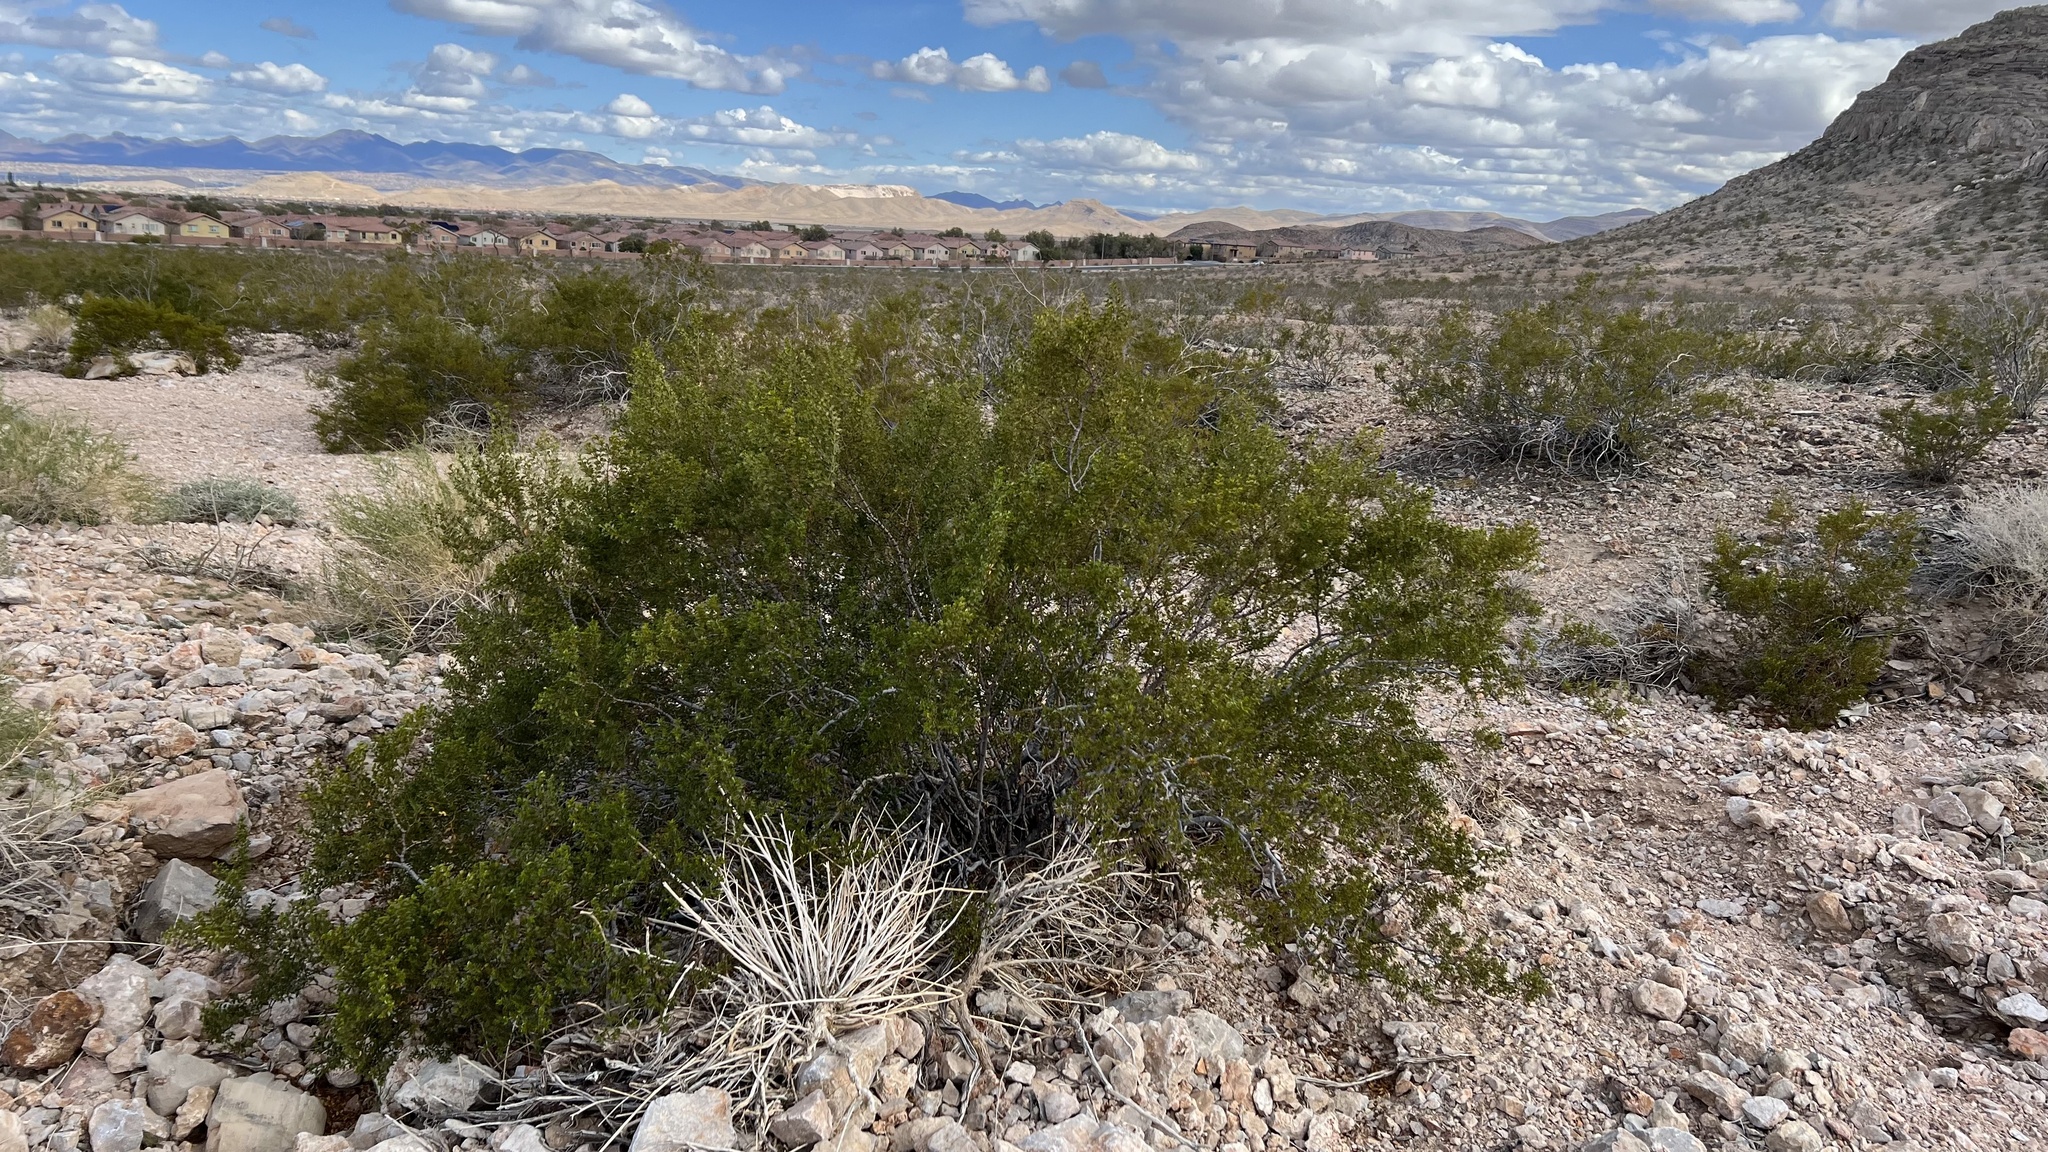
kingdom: Plantae
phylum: Tracheophyta
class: Magnoliopsida
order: Zygophyllales
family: Zygophyllaceae
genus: Larrea
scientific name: Larrea tridentata
